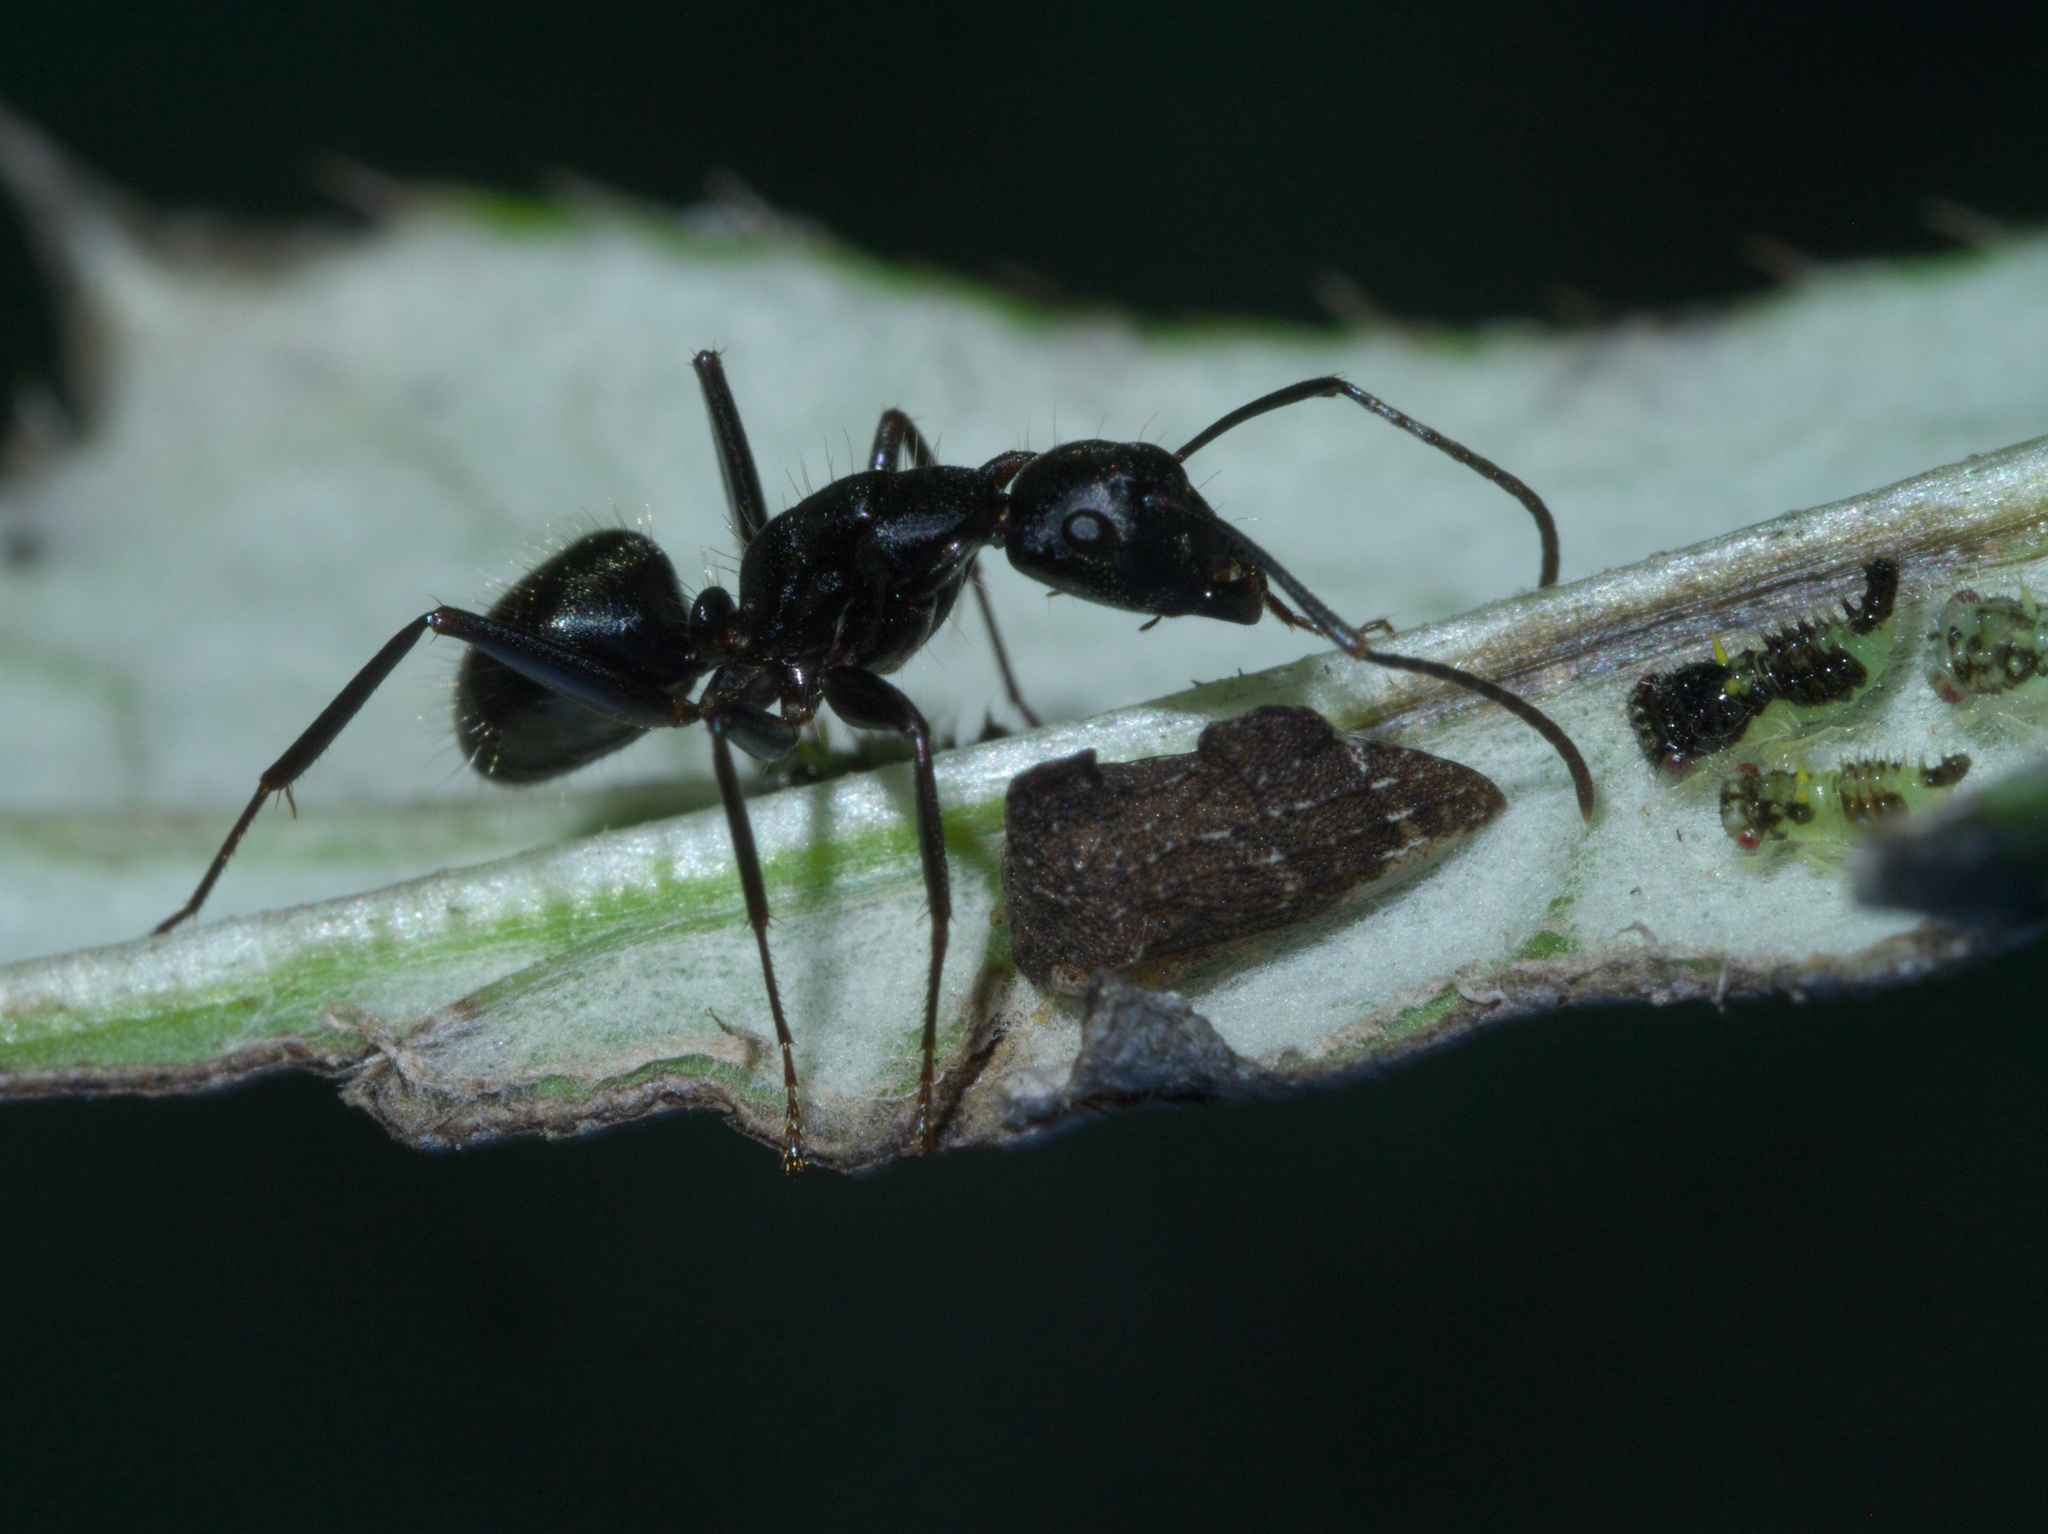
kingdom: Animalia
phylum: Arthropoda
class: Insecta
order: Hemiptera
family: Membracidae
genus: Entylia
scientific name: Entylia carinata
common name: Keeled treehopper
